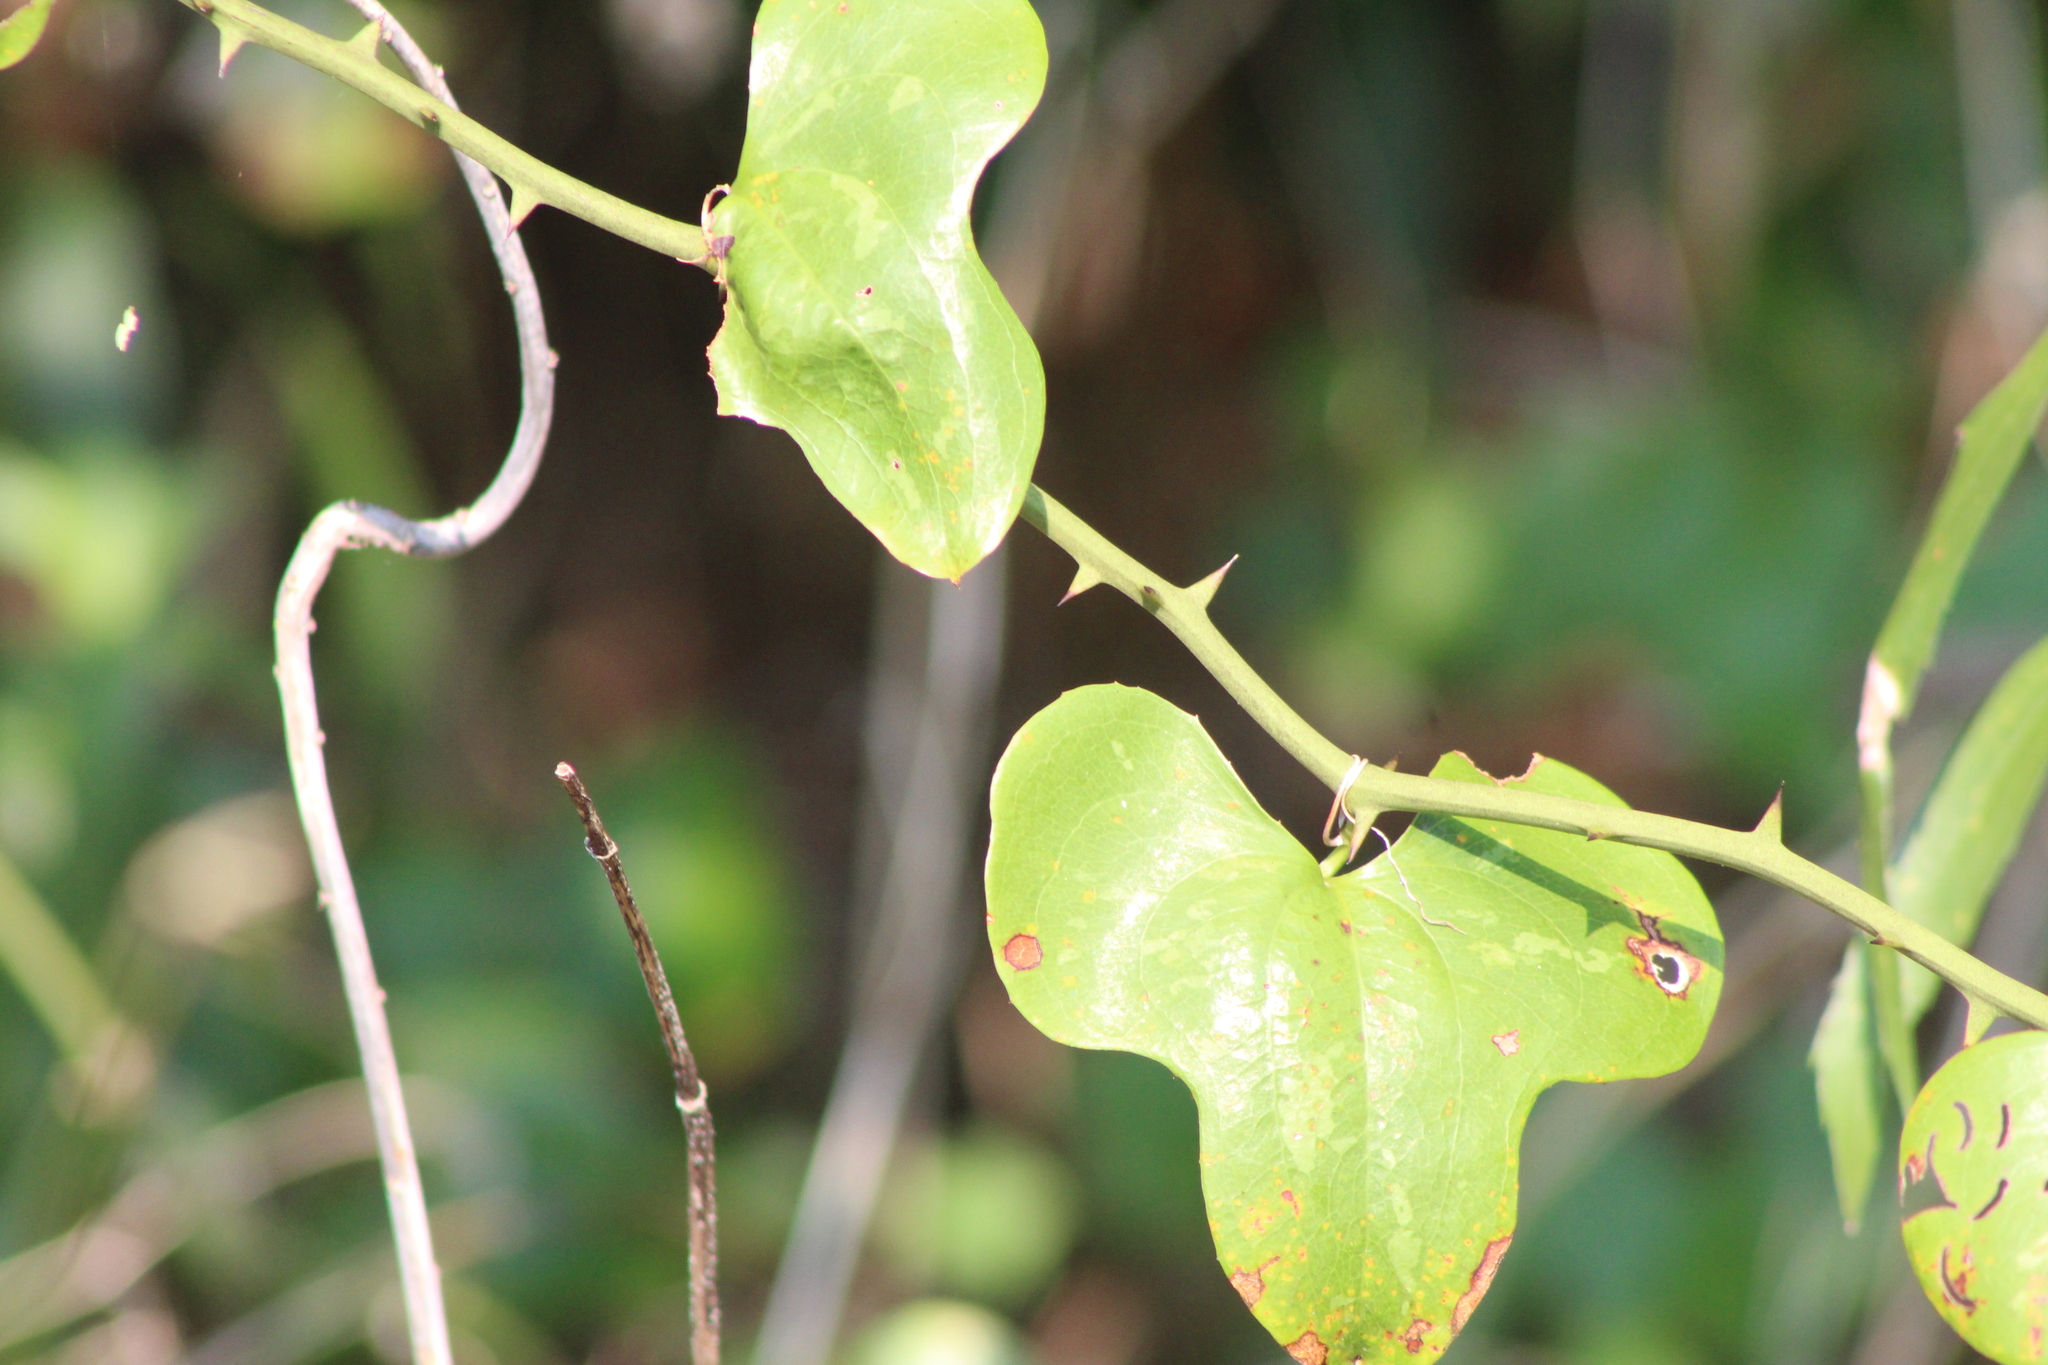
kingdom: Plantae
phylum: Tracheophyta
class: Liliopsida
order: Liliales
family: Smilacaceae
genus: Smilax
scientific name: Smilax bona-nox
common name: Catbrier
